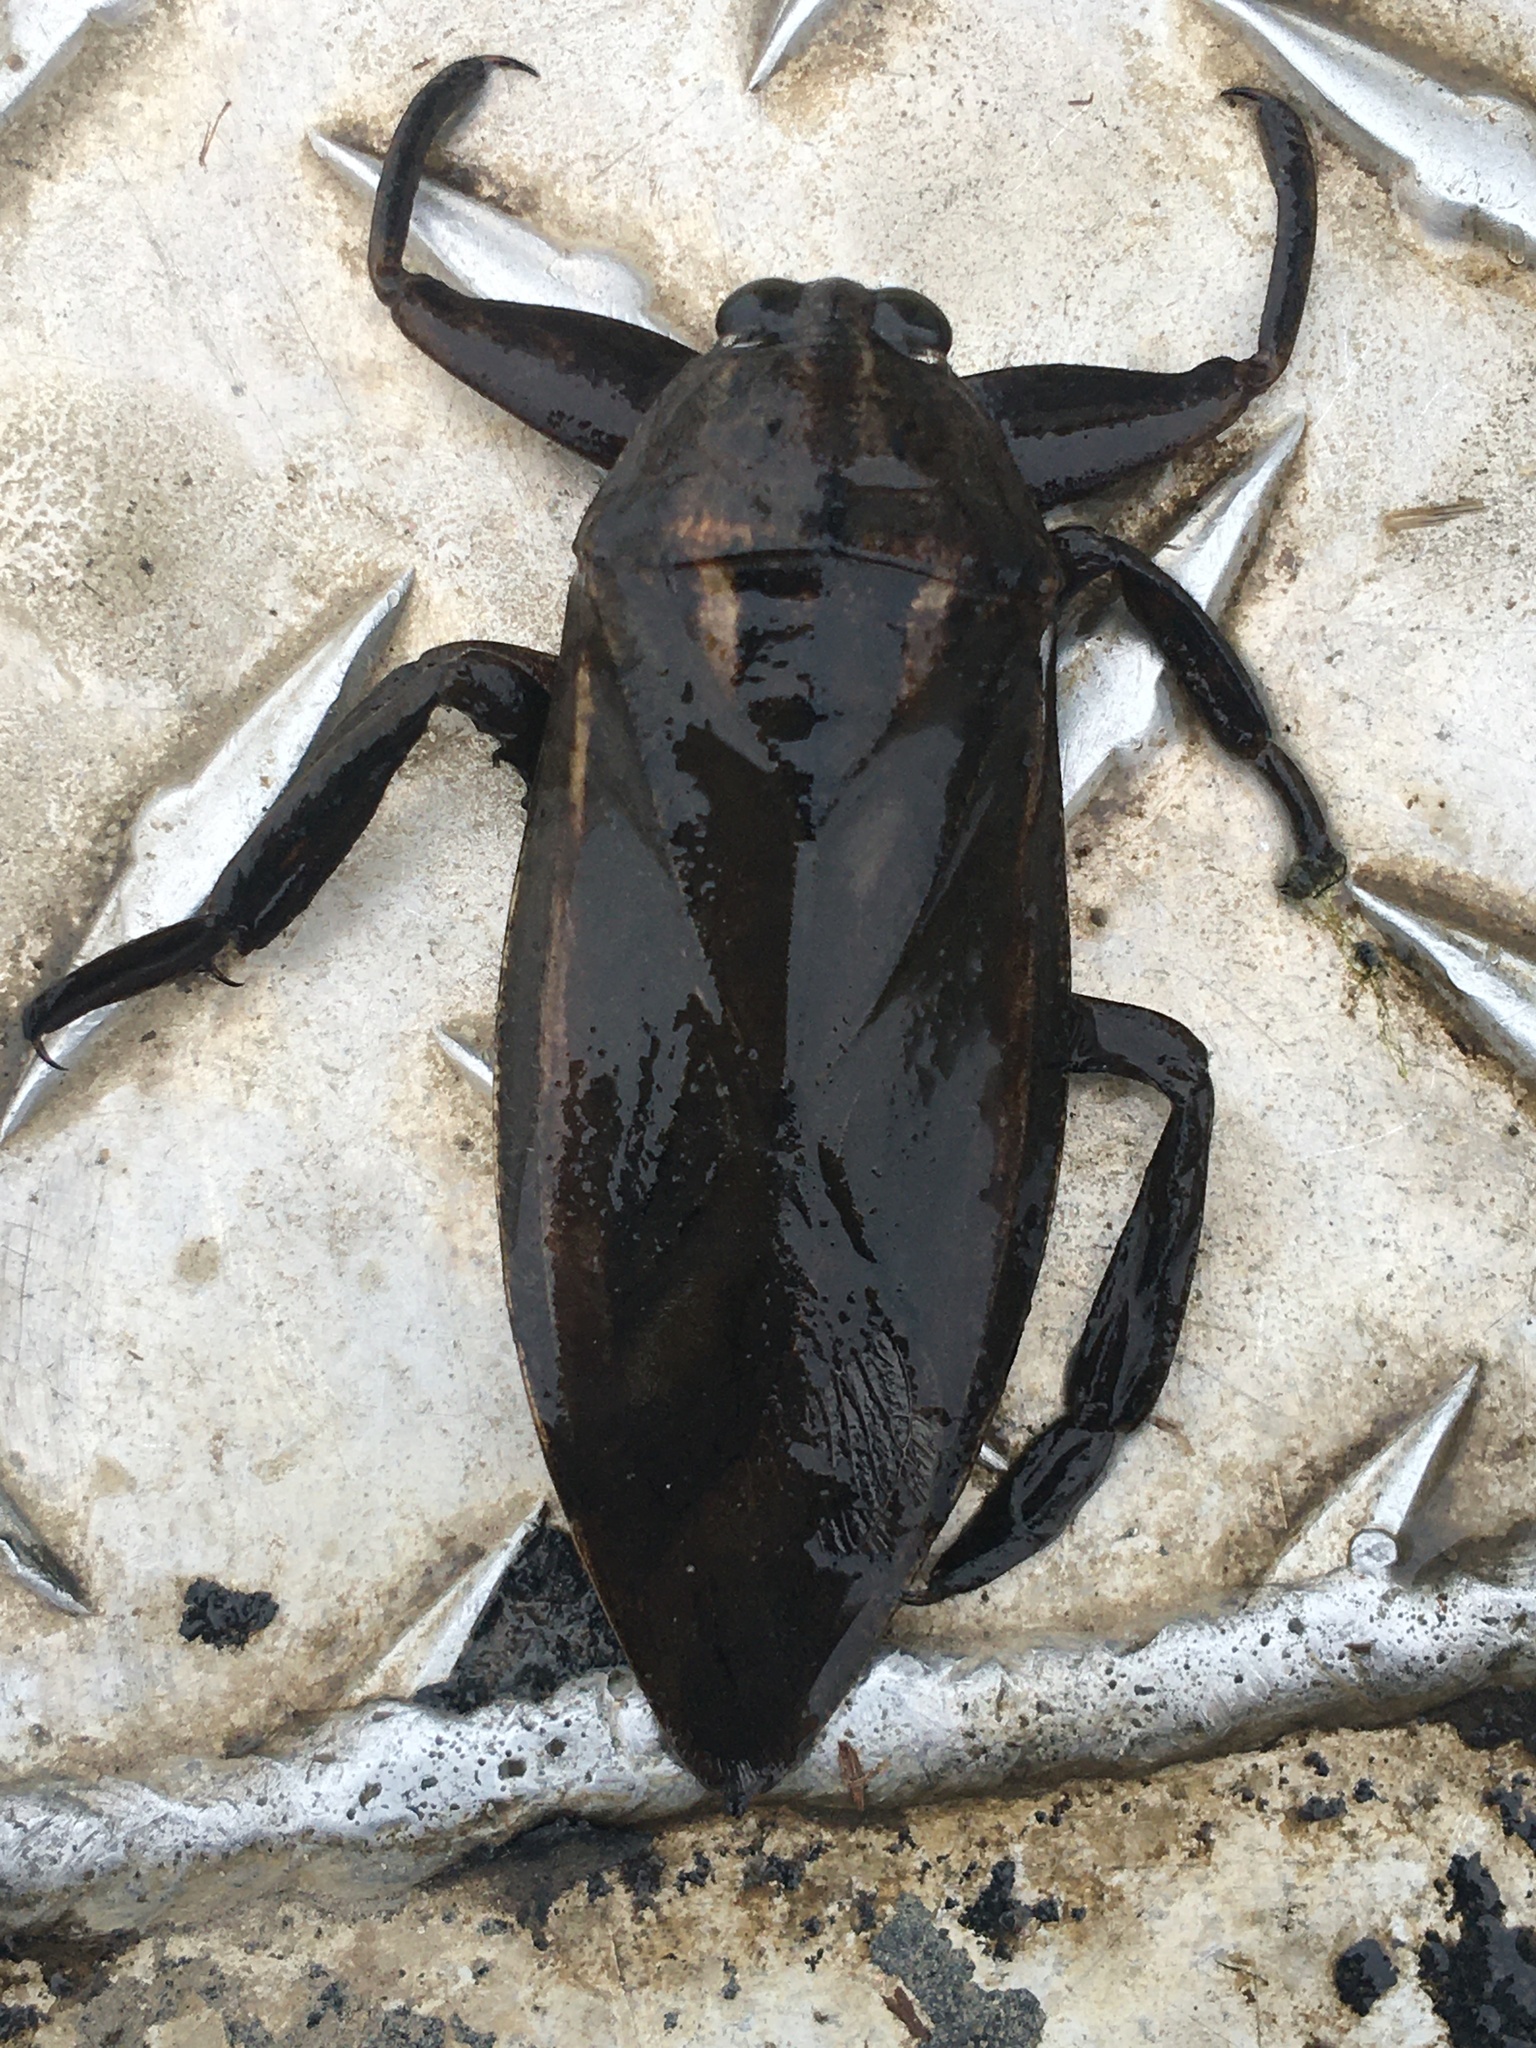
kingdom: Animalia
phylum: Arthropoda
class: Insecta
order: Hemiptera
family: Belostomatidae
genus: Lethocerus
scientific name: Lethocerus uhleri
